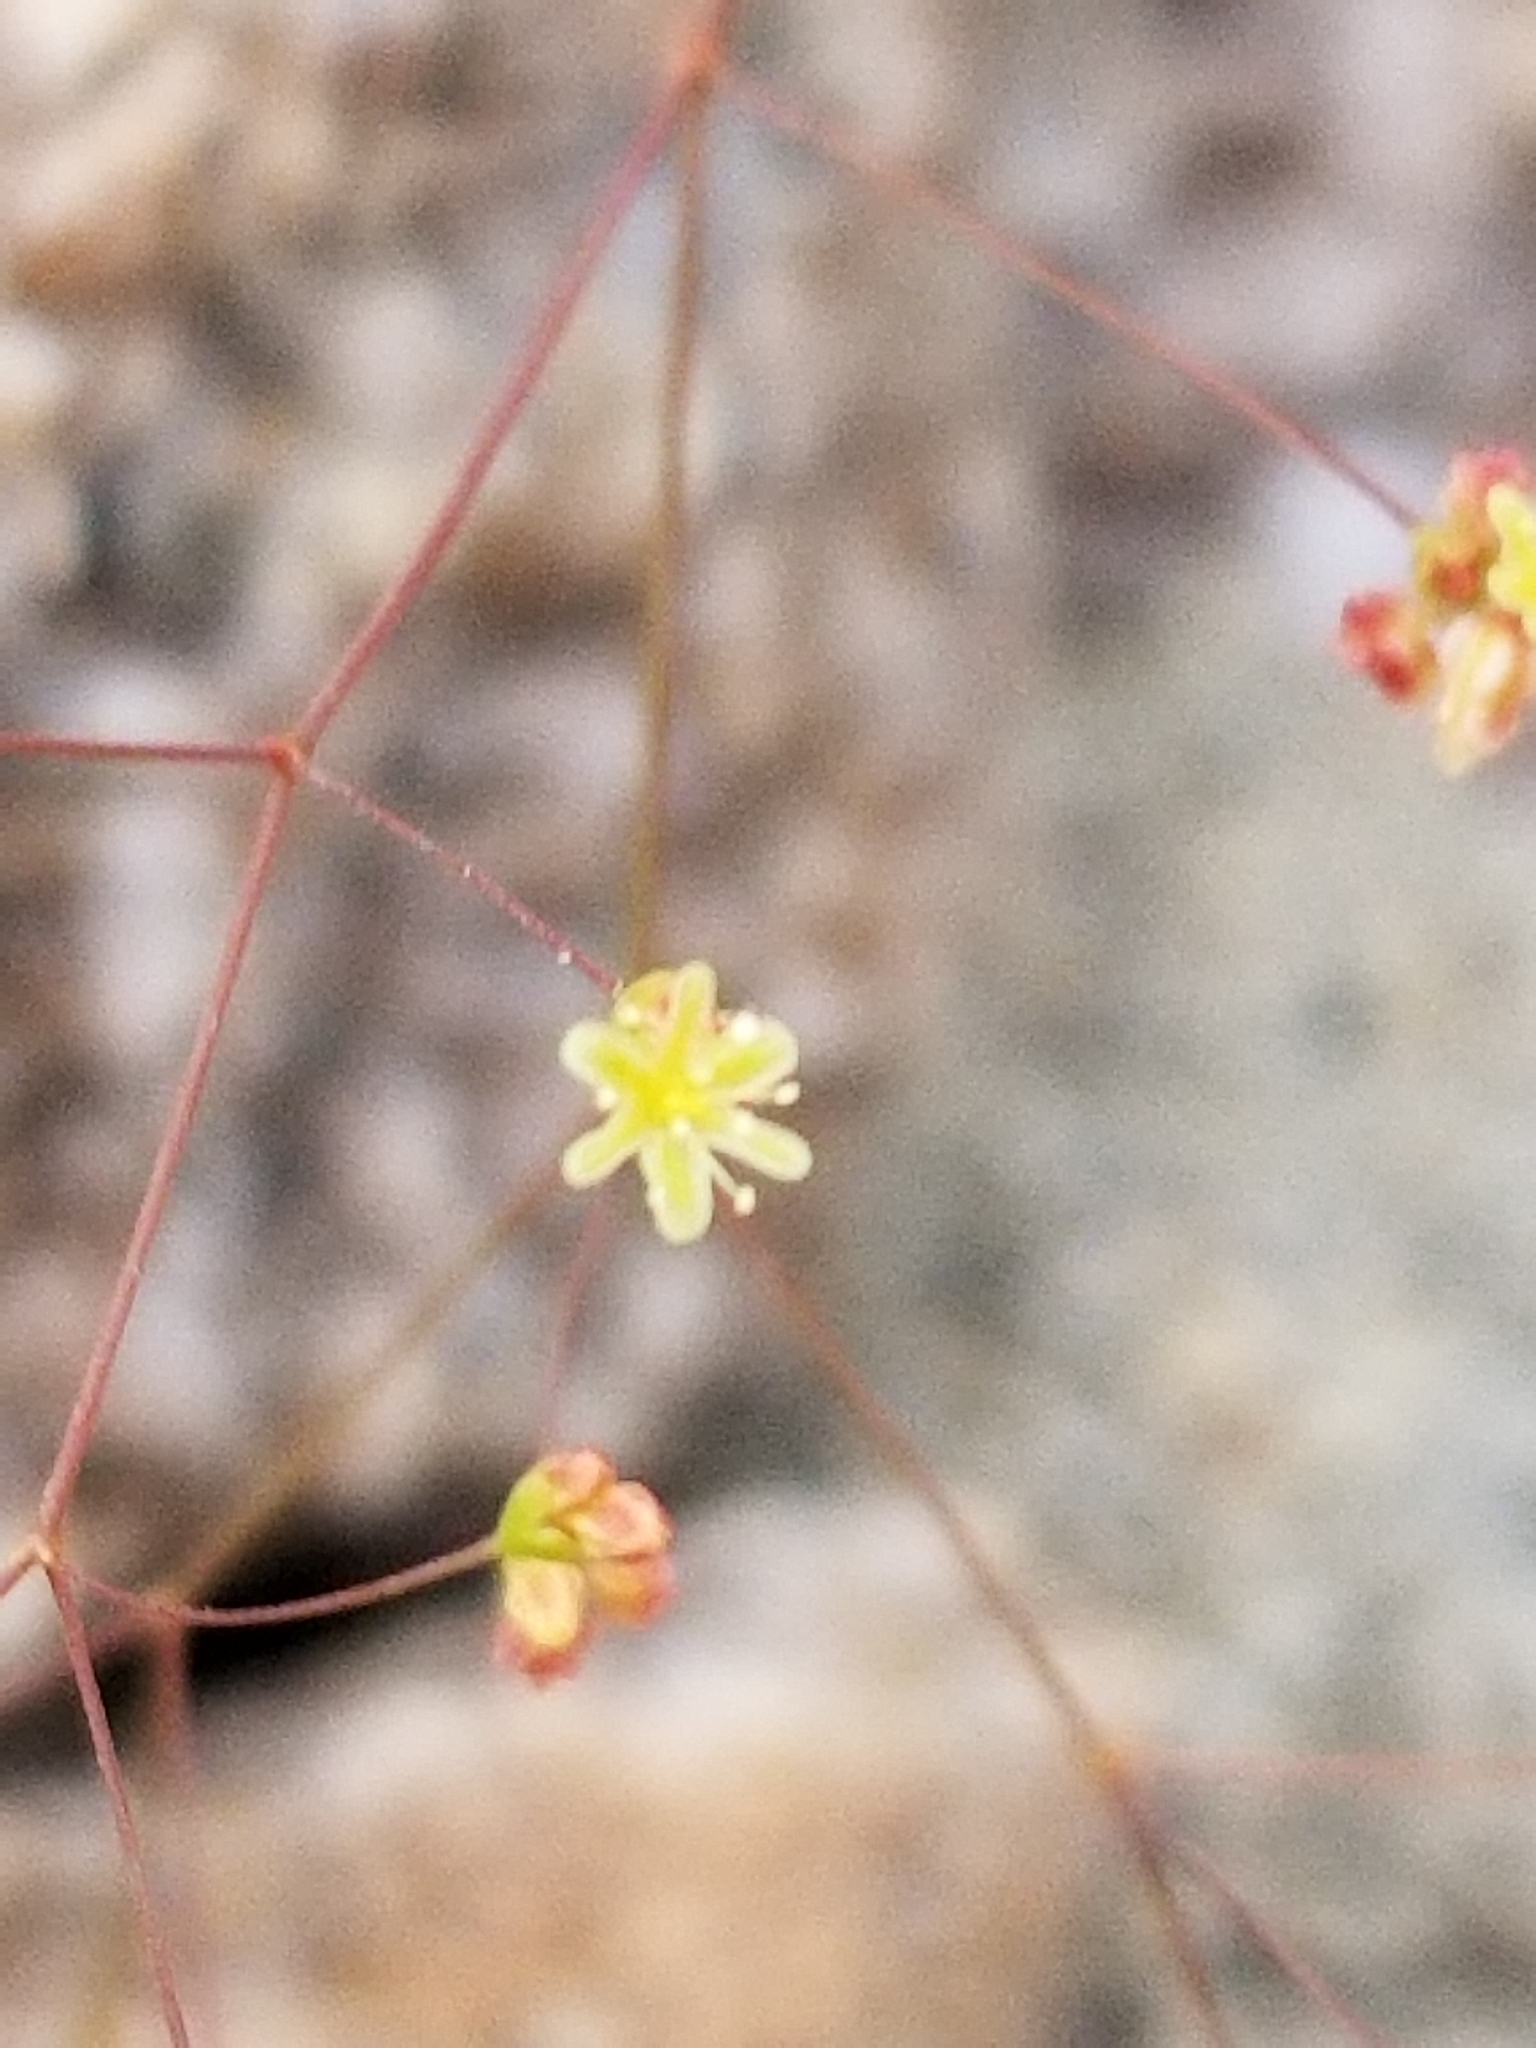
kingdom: Plantae
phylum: Tracheophyta
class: Magnoliopsida
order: Caryophyllales
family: Polygonaceae
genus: Eriogonum
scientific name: Eriogonum thomasii
